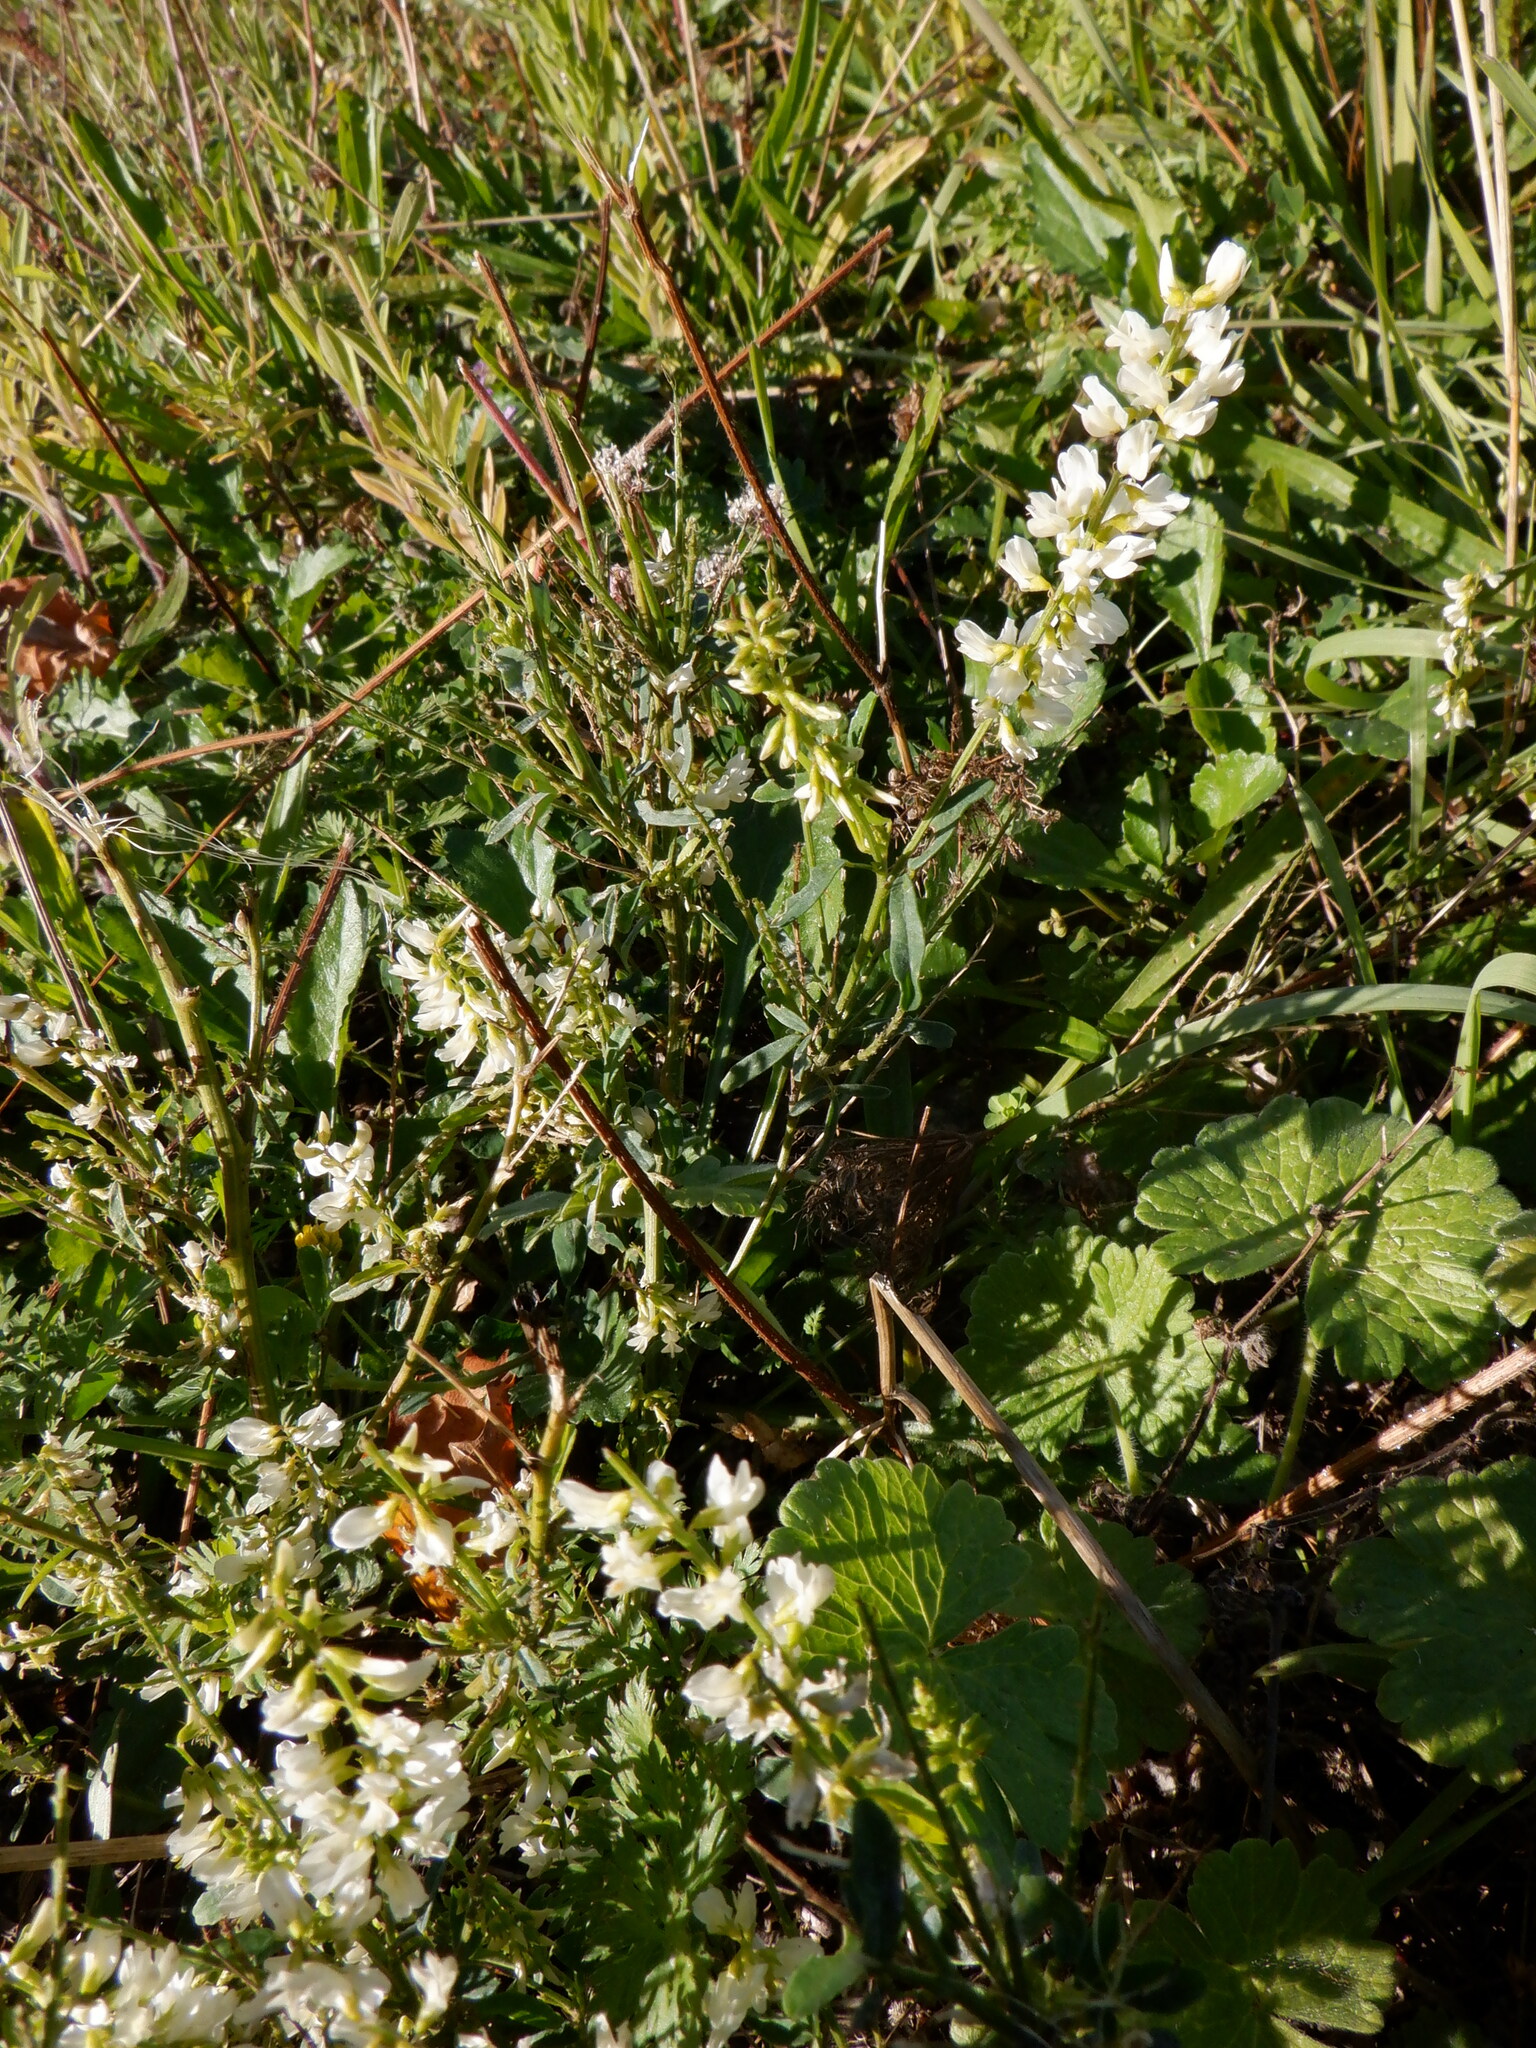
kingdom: Plantae
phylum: Tracheophyta
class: Magnoliopsida
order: Fabales
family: Fabaceae
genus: Melilotus
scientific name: Melilotus albus
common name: White melilot
